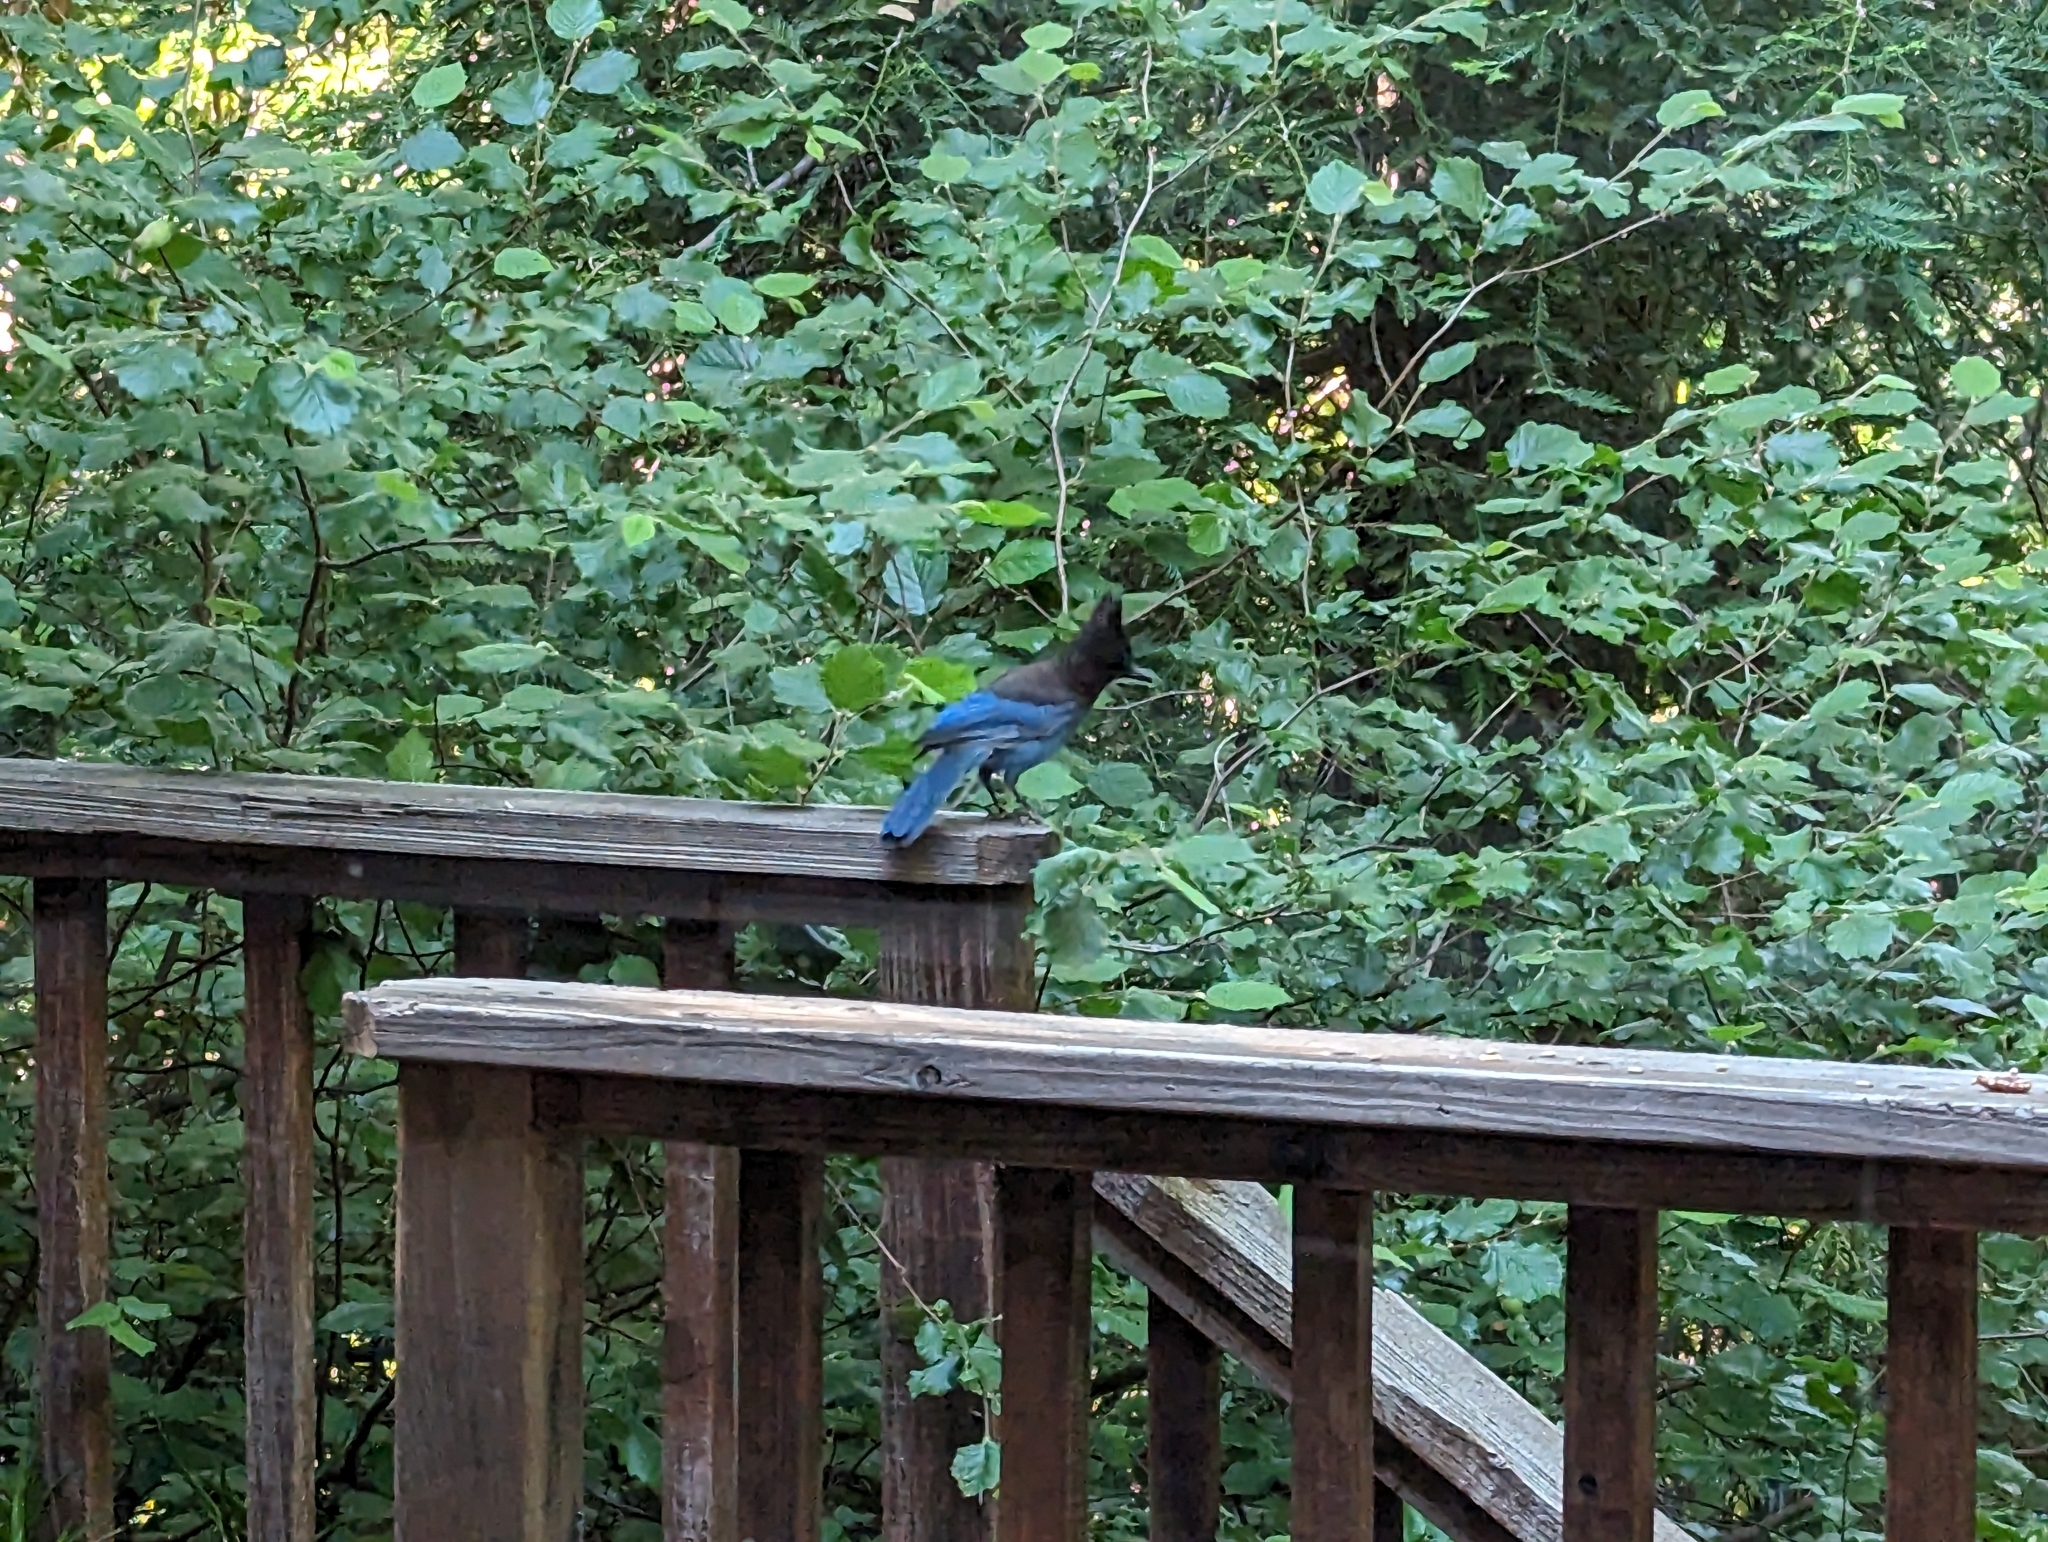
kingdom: Animalia
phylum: Chordata
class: Aves
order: Passeriformes
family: Corvidae
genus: Cyanocitta
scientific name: Cyanocitta stelleri
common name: Steller's jay
